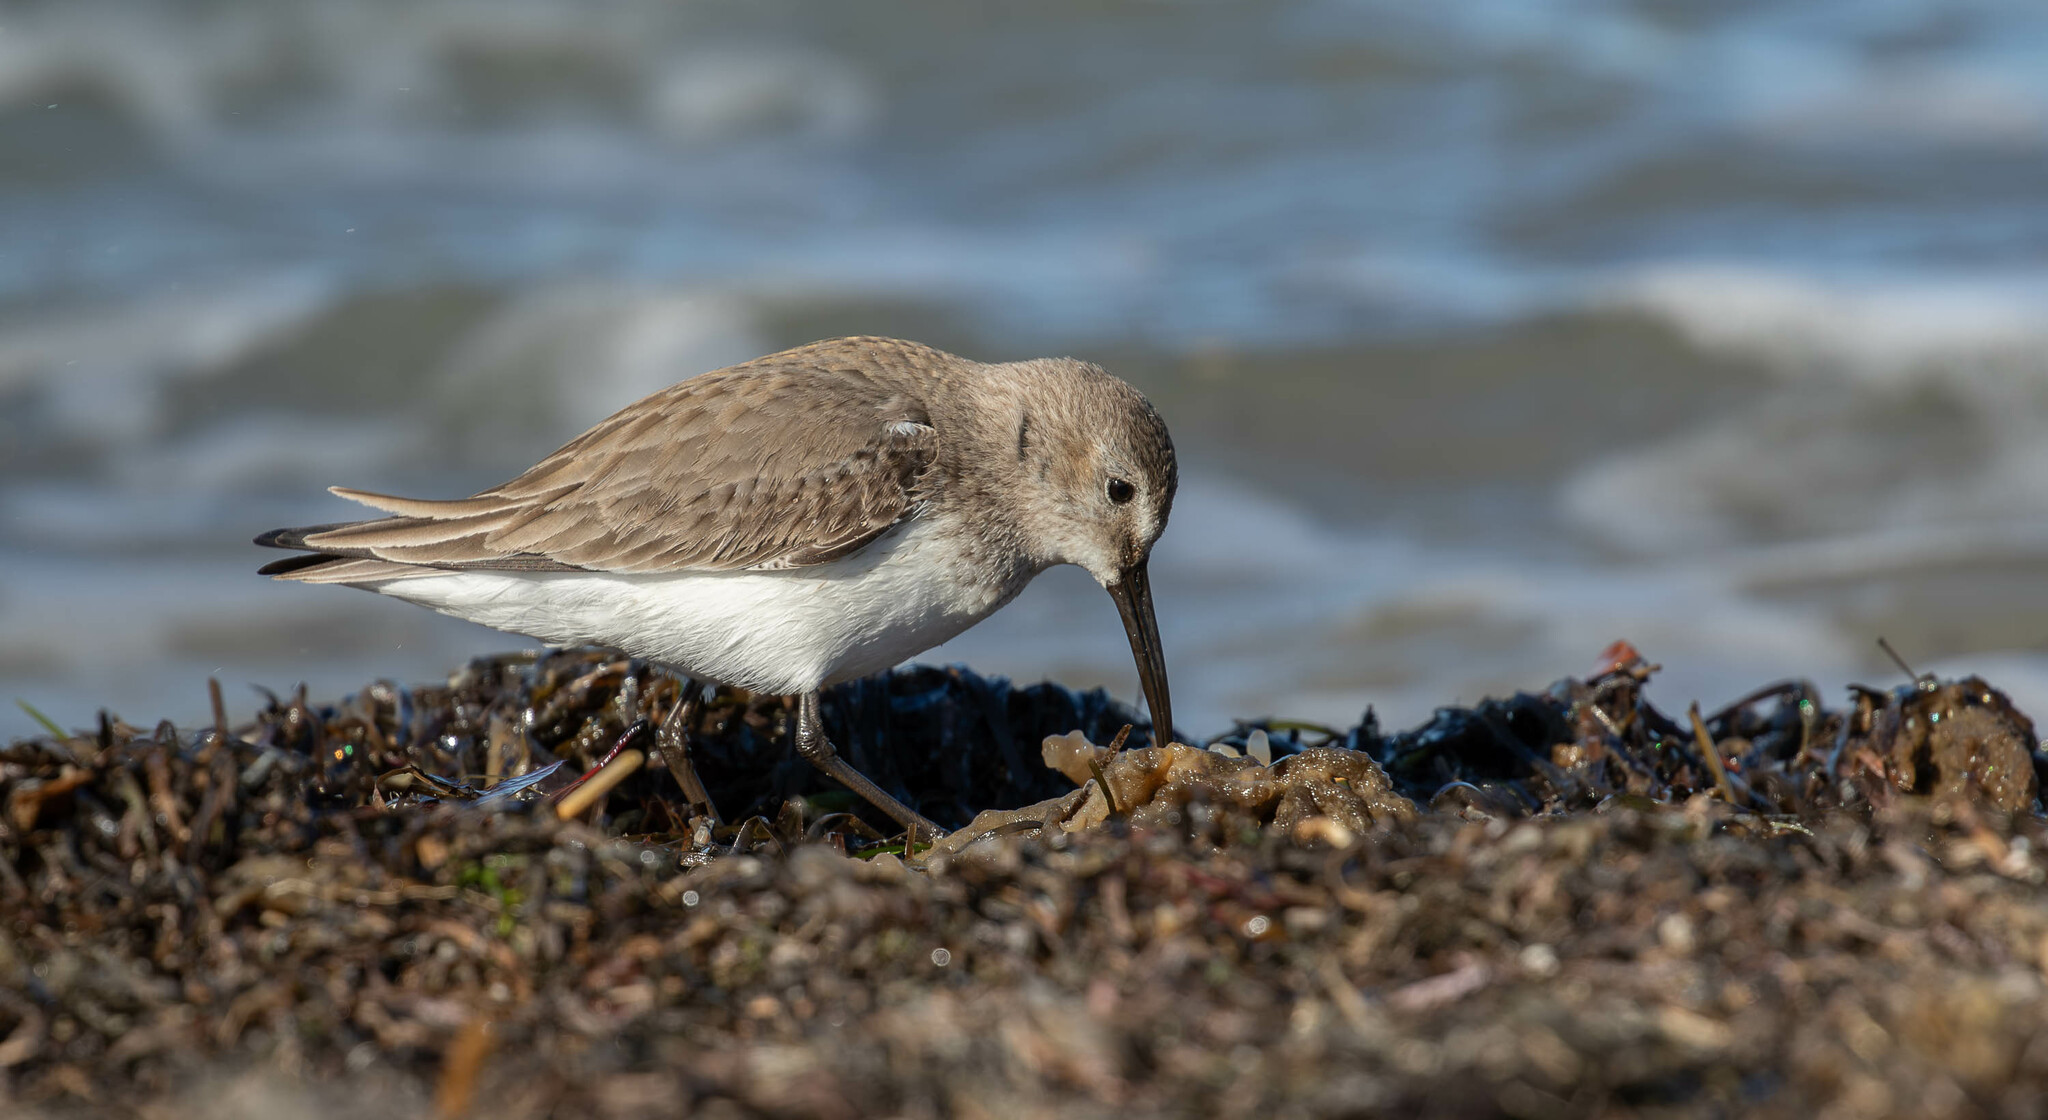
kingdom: Animalia
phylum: Chordata
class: Aves
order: Charadriiformes
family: Scolopacidae
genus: Calidris
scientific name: Calidris alpina
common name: Dunlin
